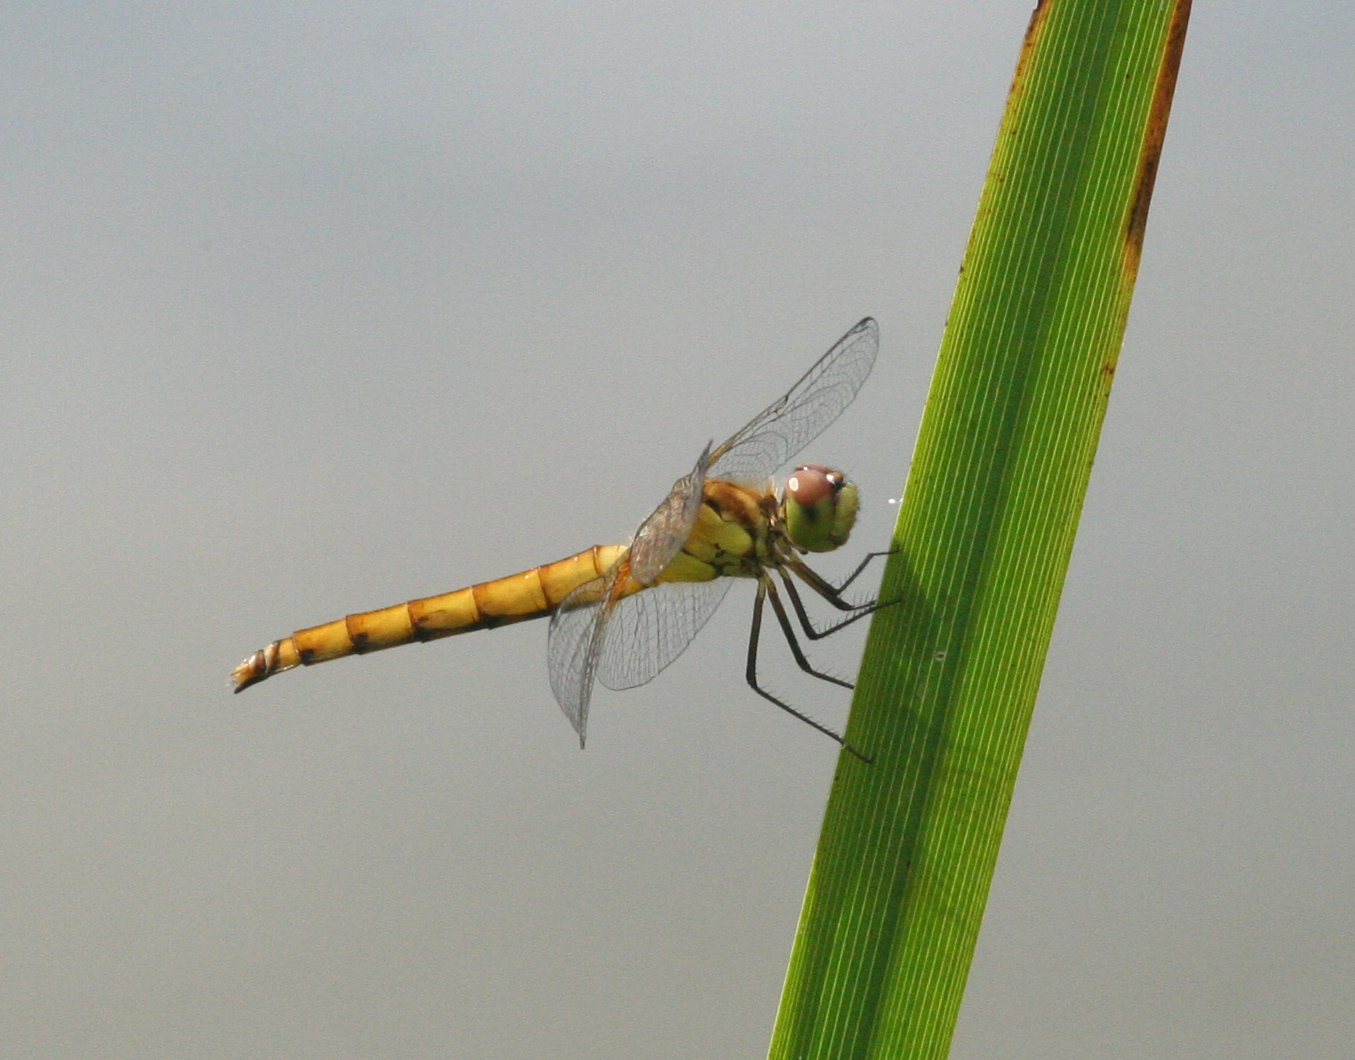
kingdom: Animalia
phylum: Arthropoda
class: Insecta
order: Odonata
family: Libellulidae
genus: Sympetrum
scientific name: Sympetrum cordulegaster
